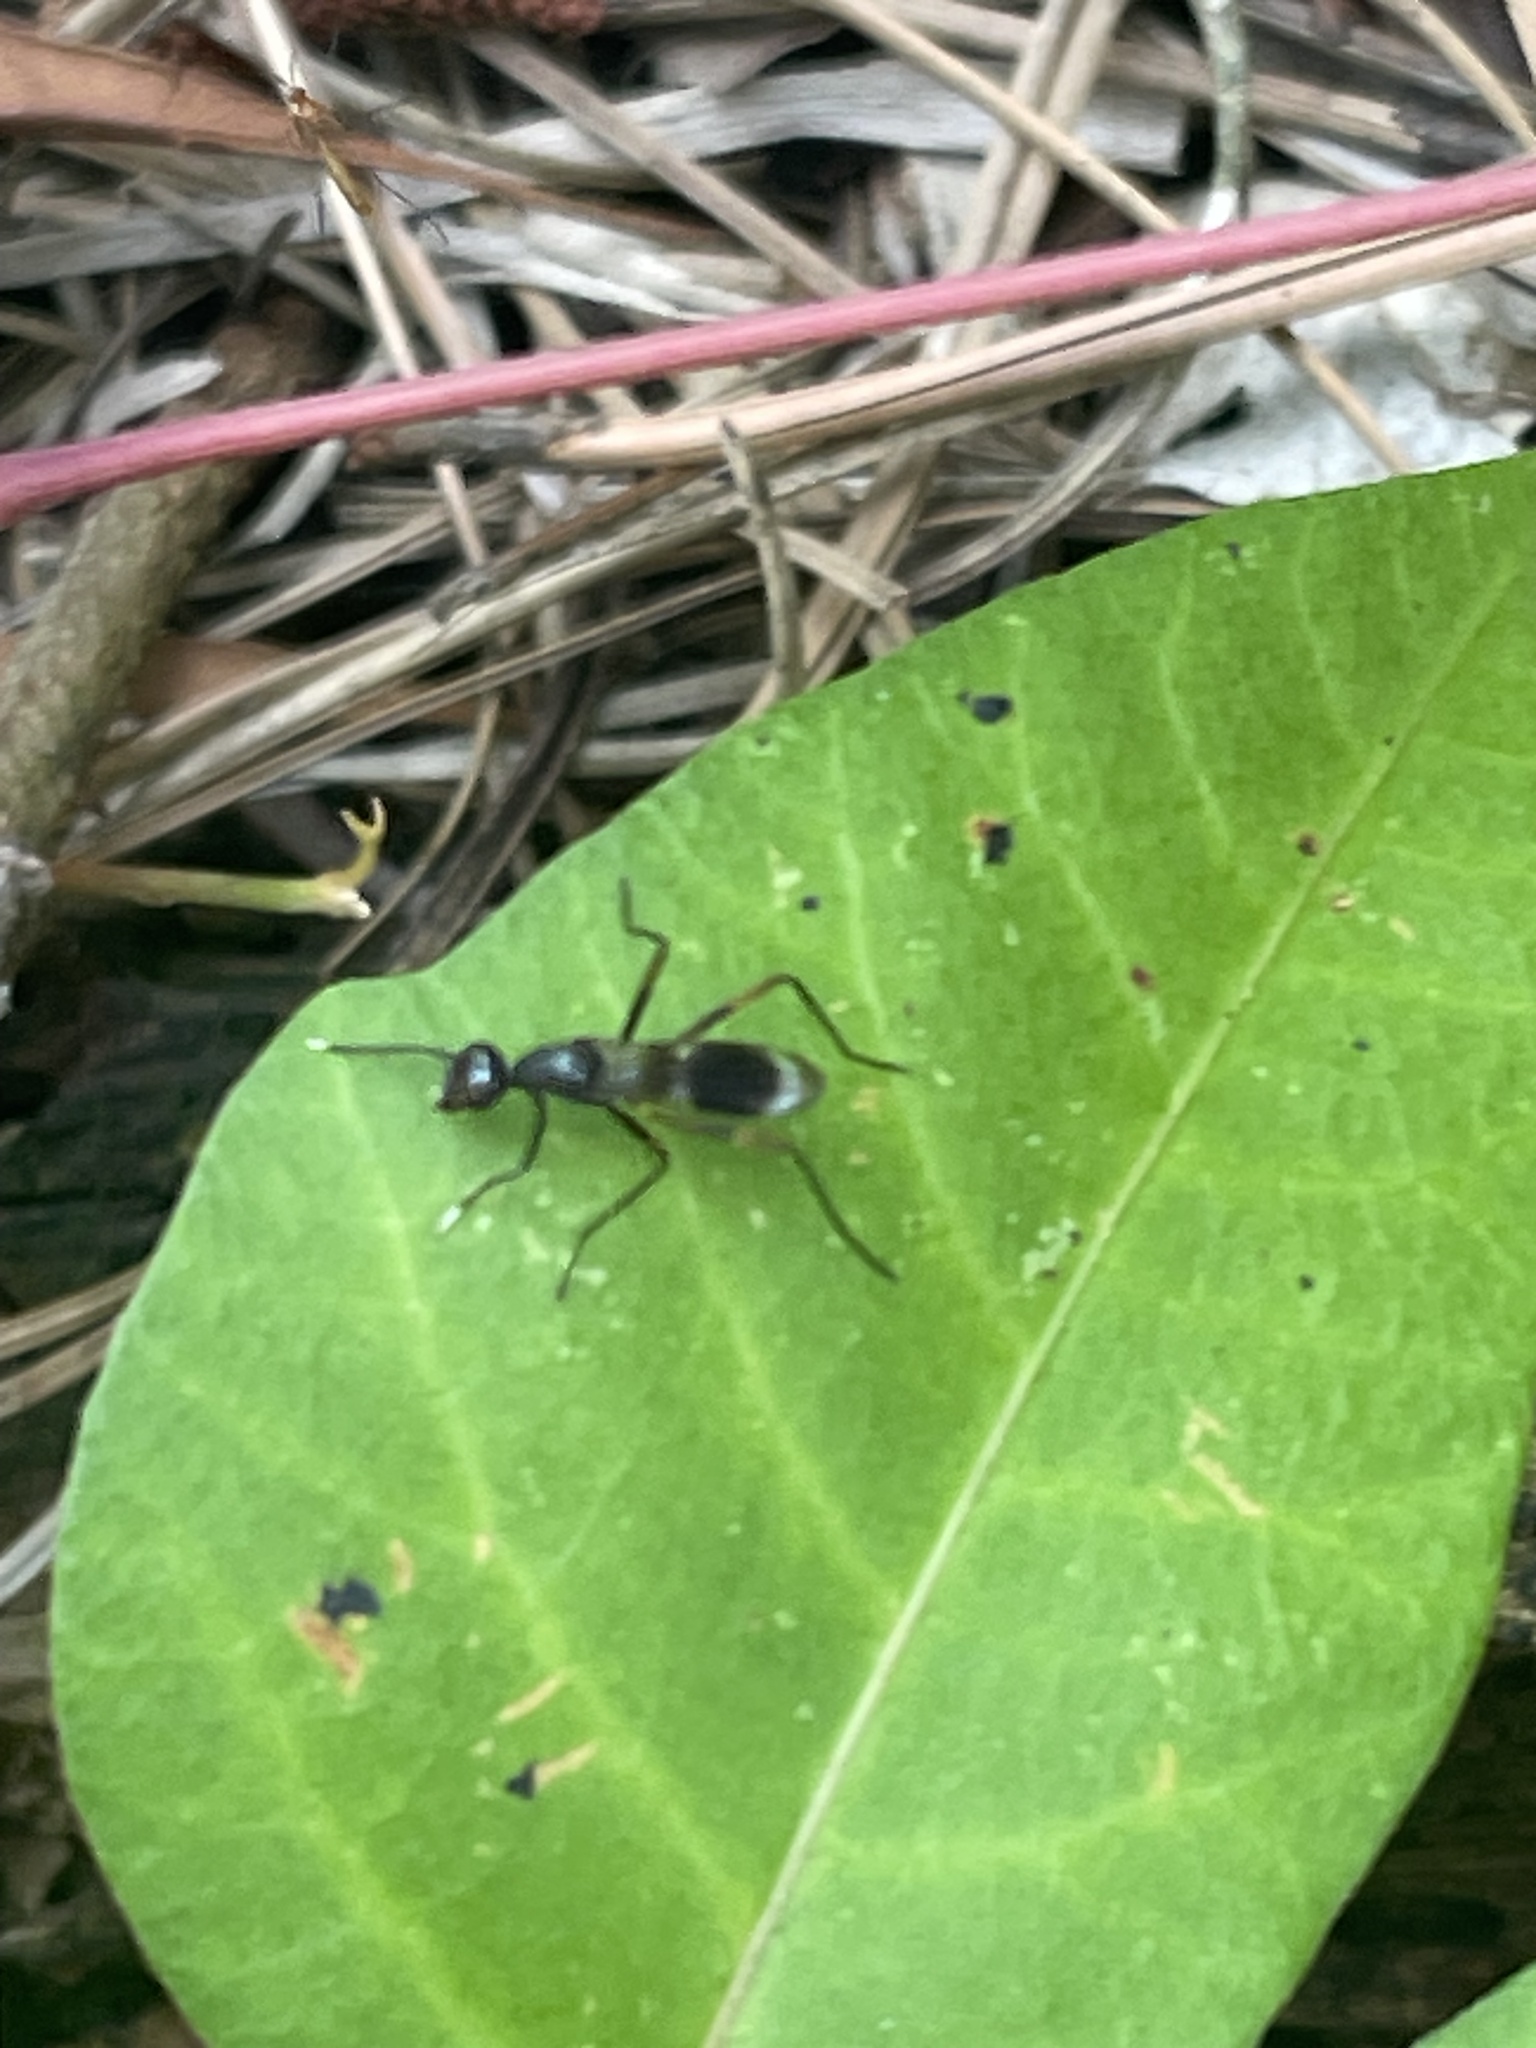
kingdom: Animalia
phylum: Arthropoda
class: Insecta
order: Diptera
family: Micropezidae
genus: Taeniaptera
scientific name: Taeniaptera trivittata
